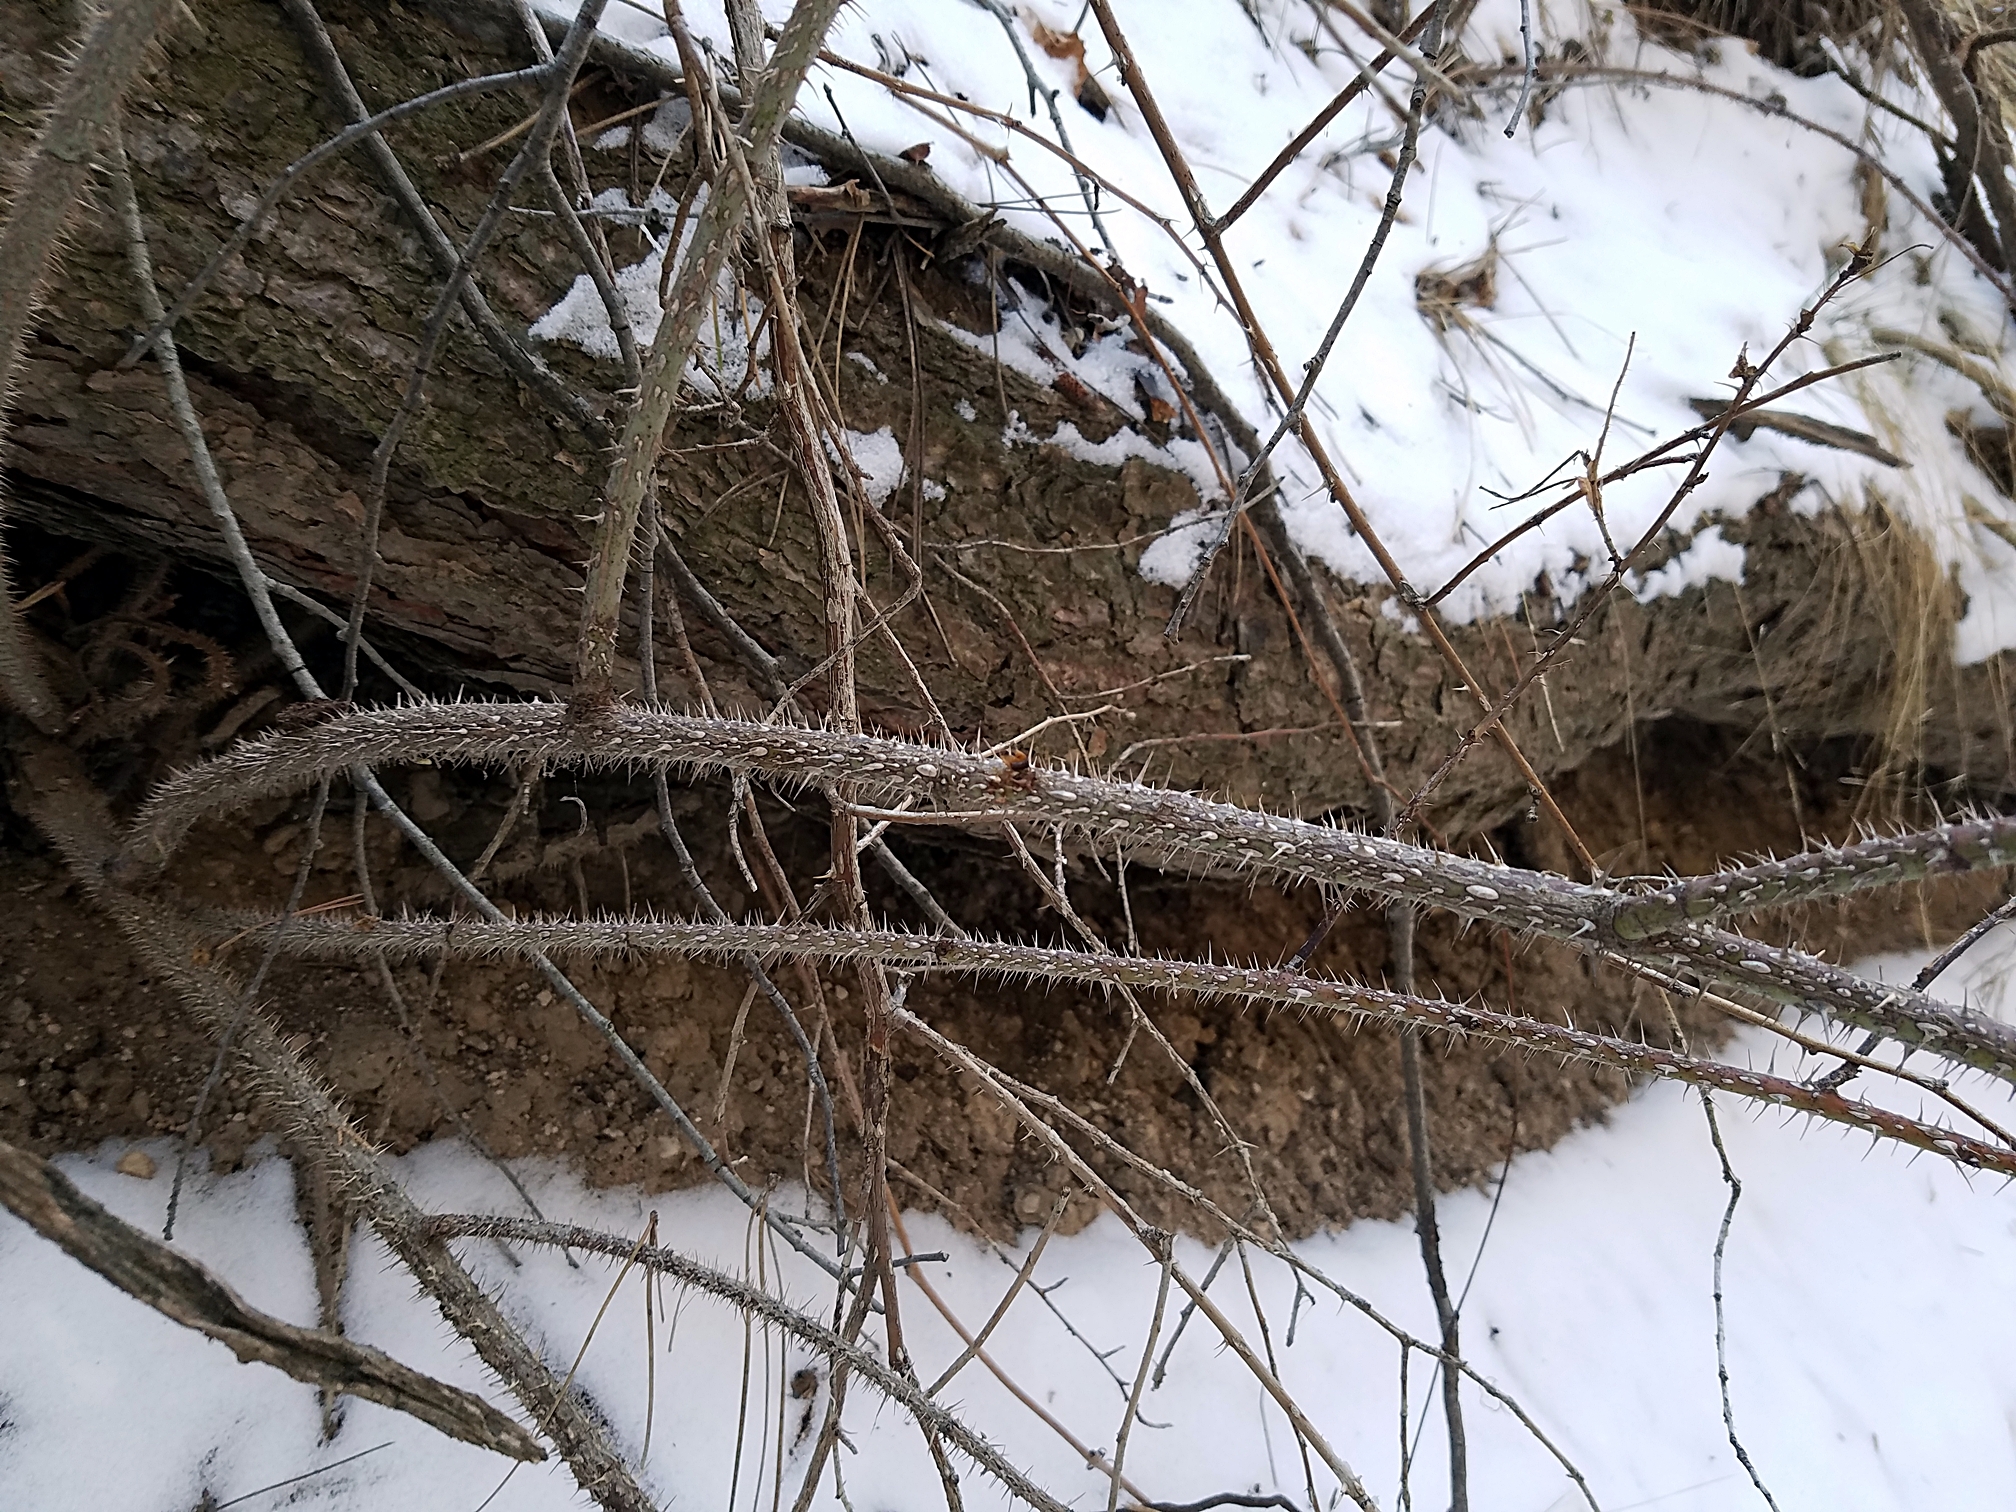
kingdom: Plantae
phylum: Tracheophyta
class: Magnoliopsida
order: Rosales
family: Rosaceae
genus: Rosa
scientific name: Rosa arkansana
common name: Prairie rose
